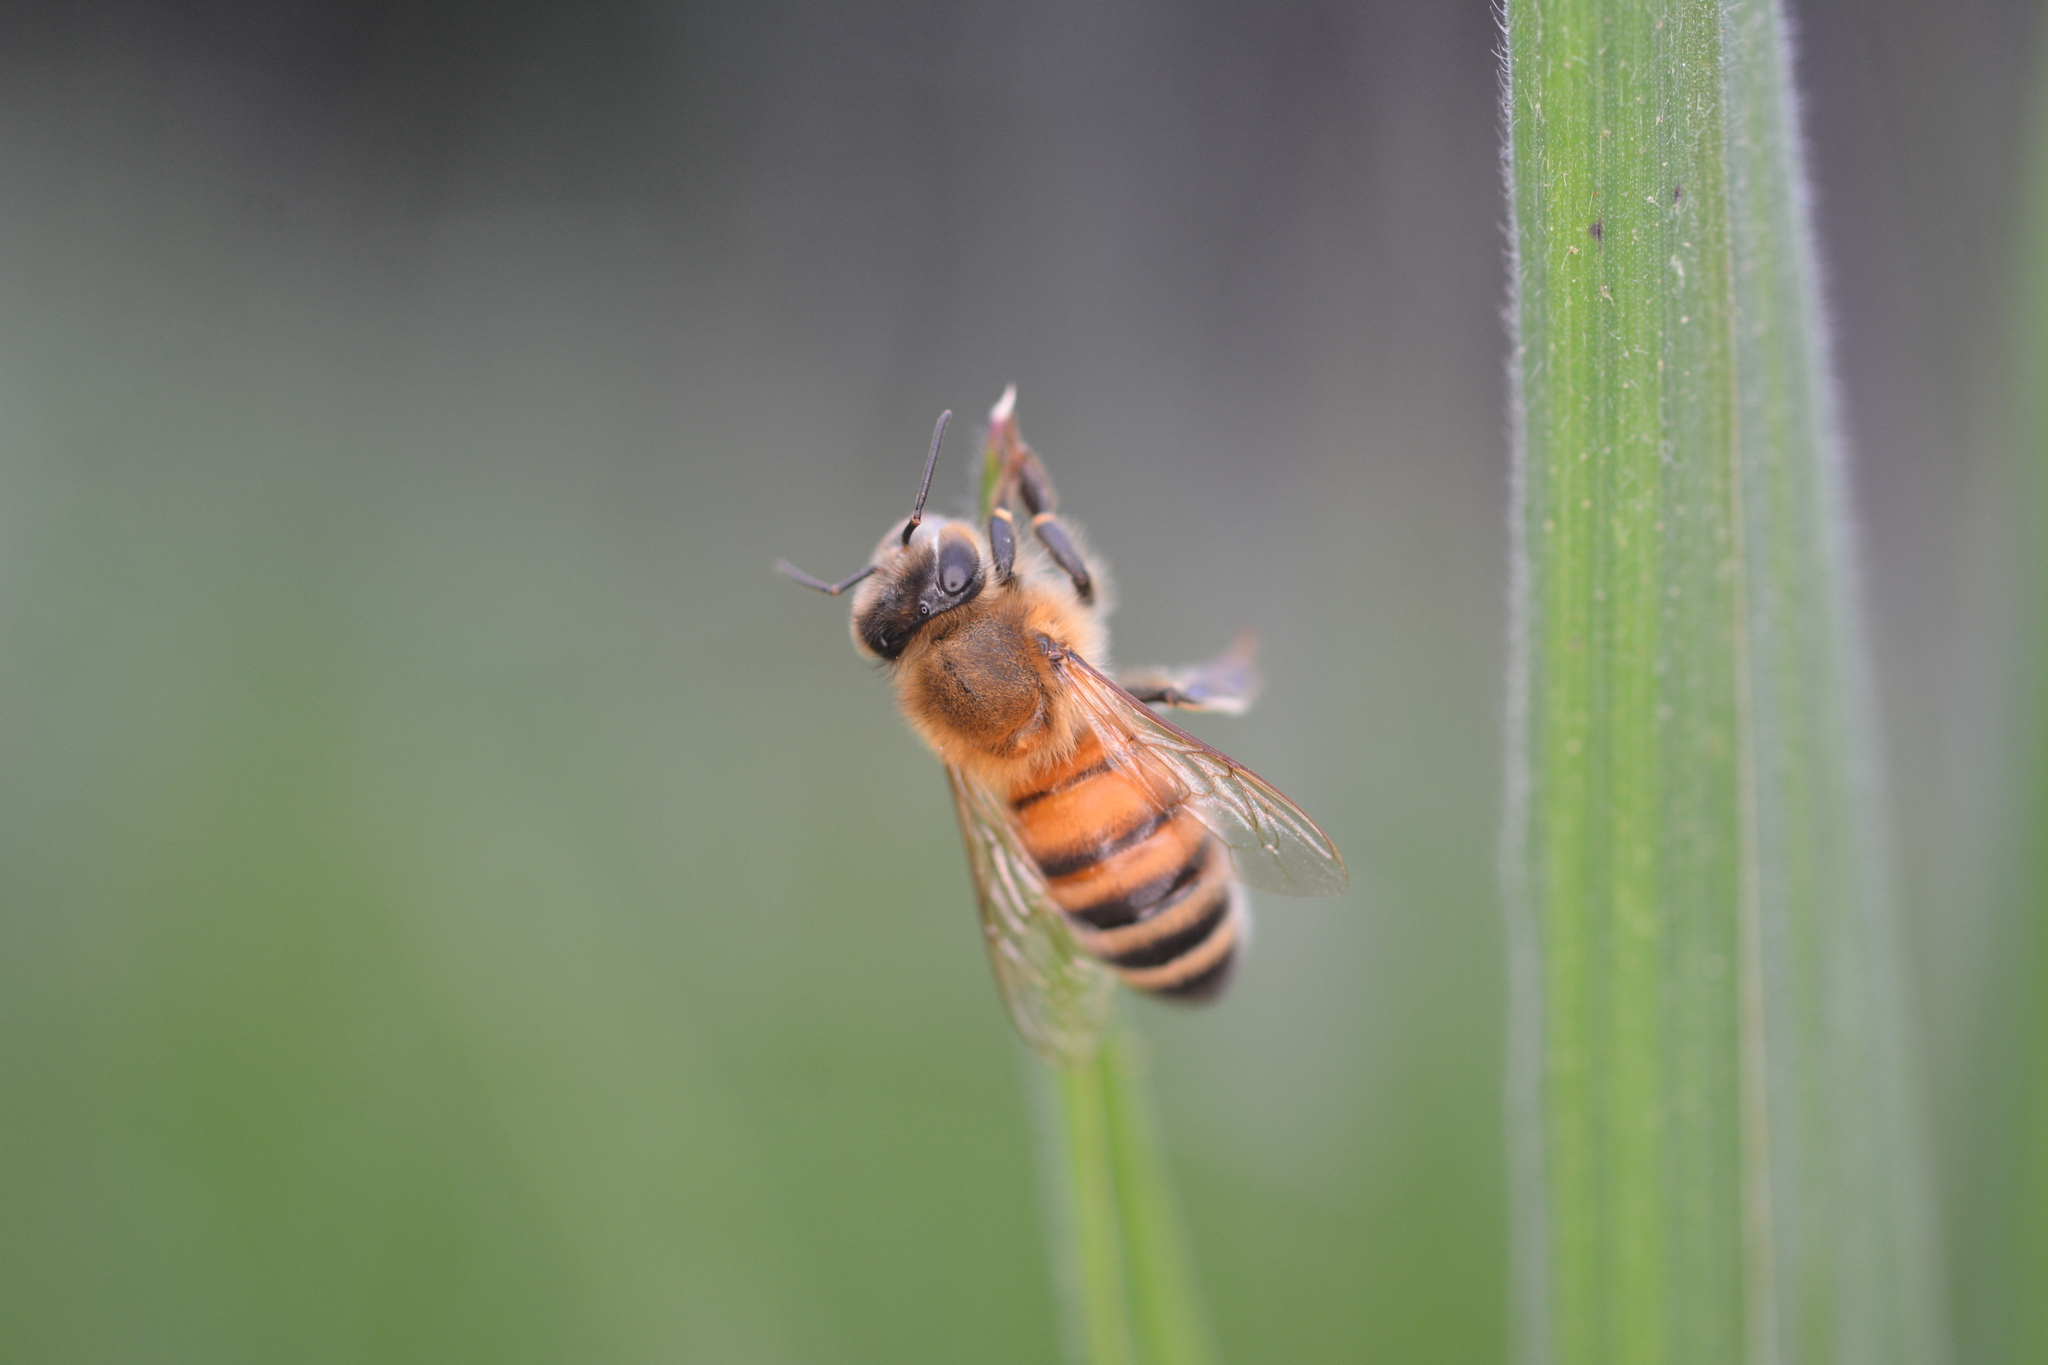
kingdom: Animalia
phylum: Arthropoda
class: Insecta
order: Hymenoptera
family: Apidae
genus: Apis
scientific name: Apis mellifera
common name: Honey bee
